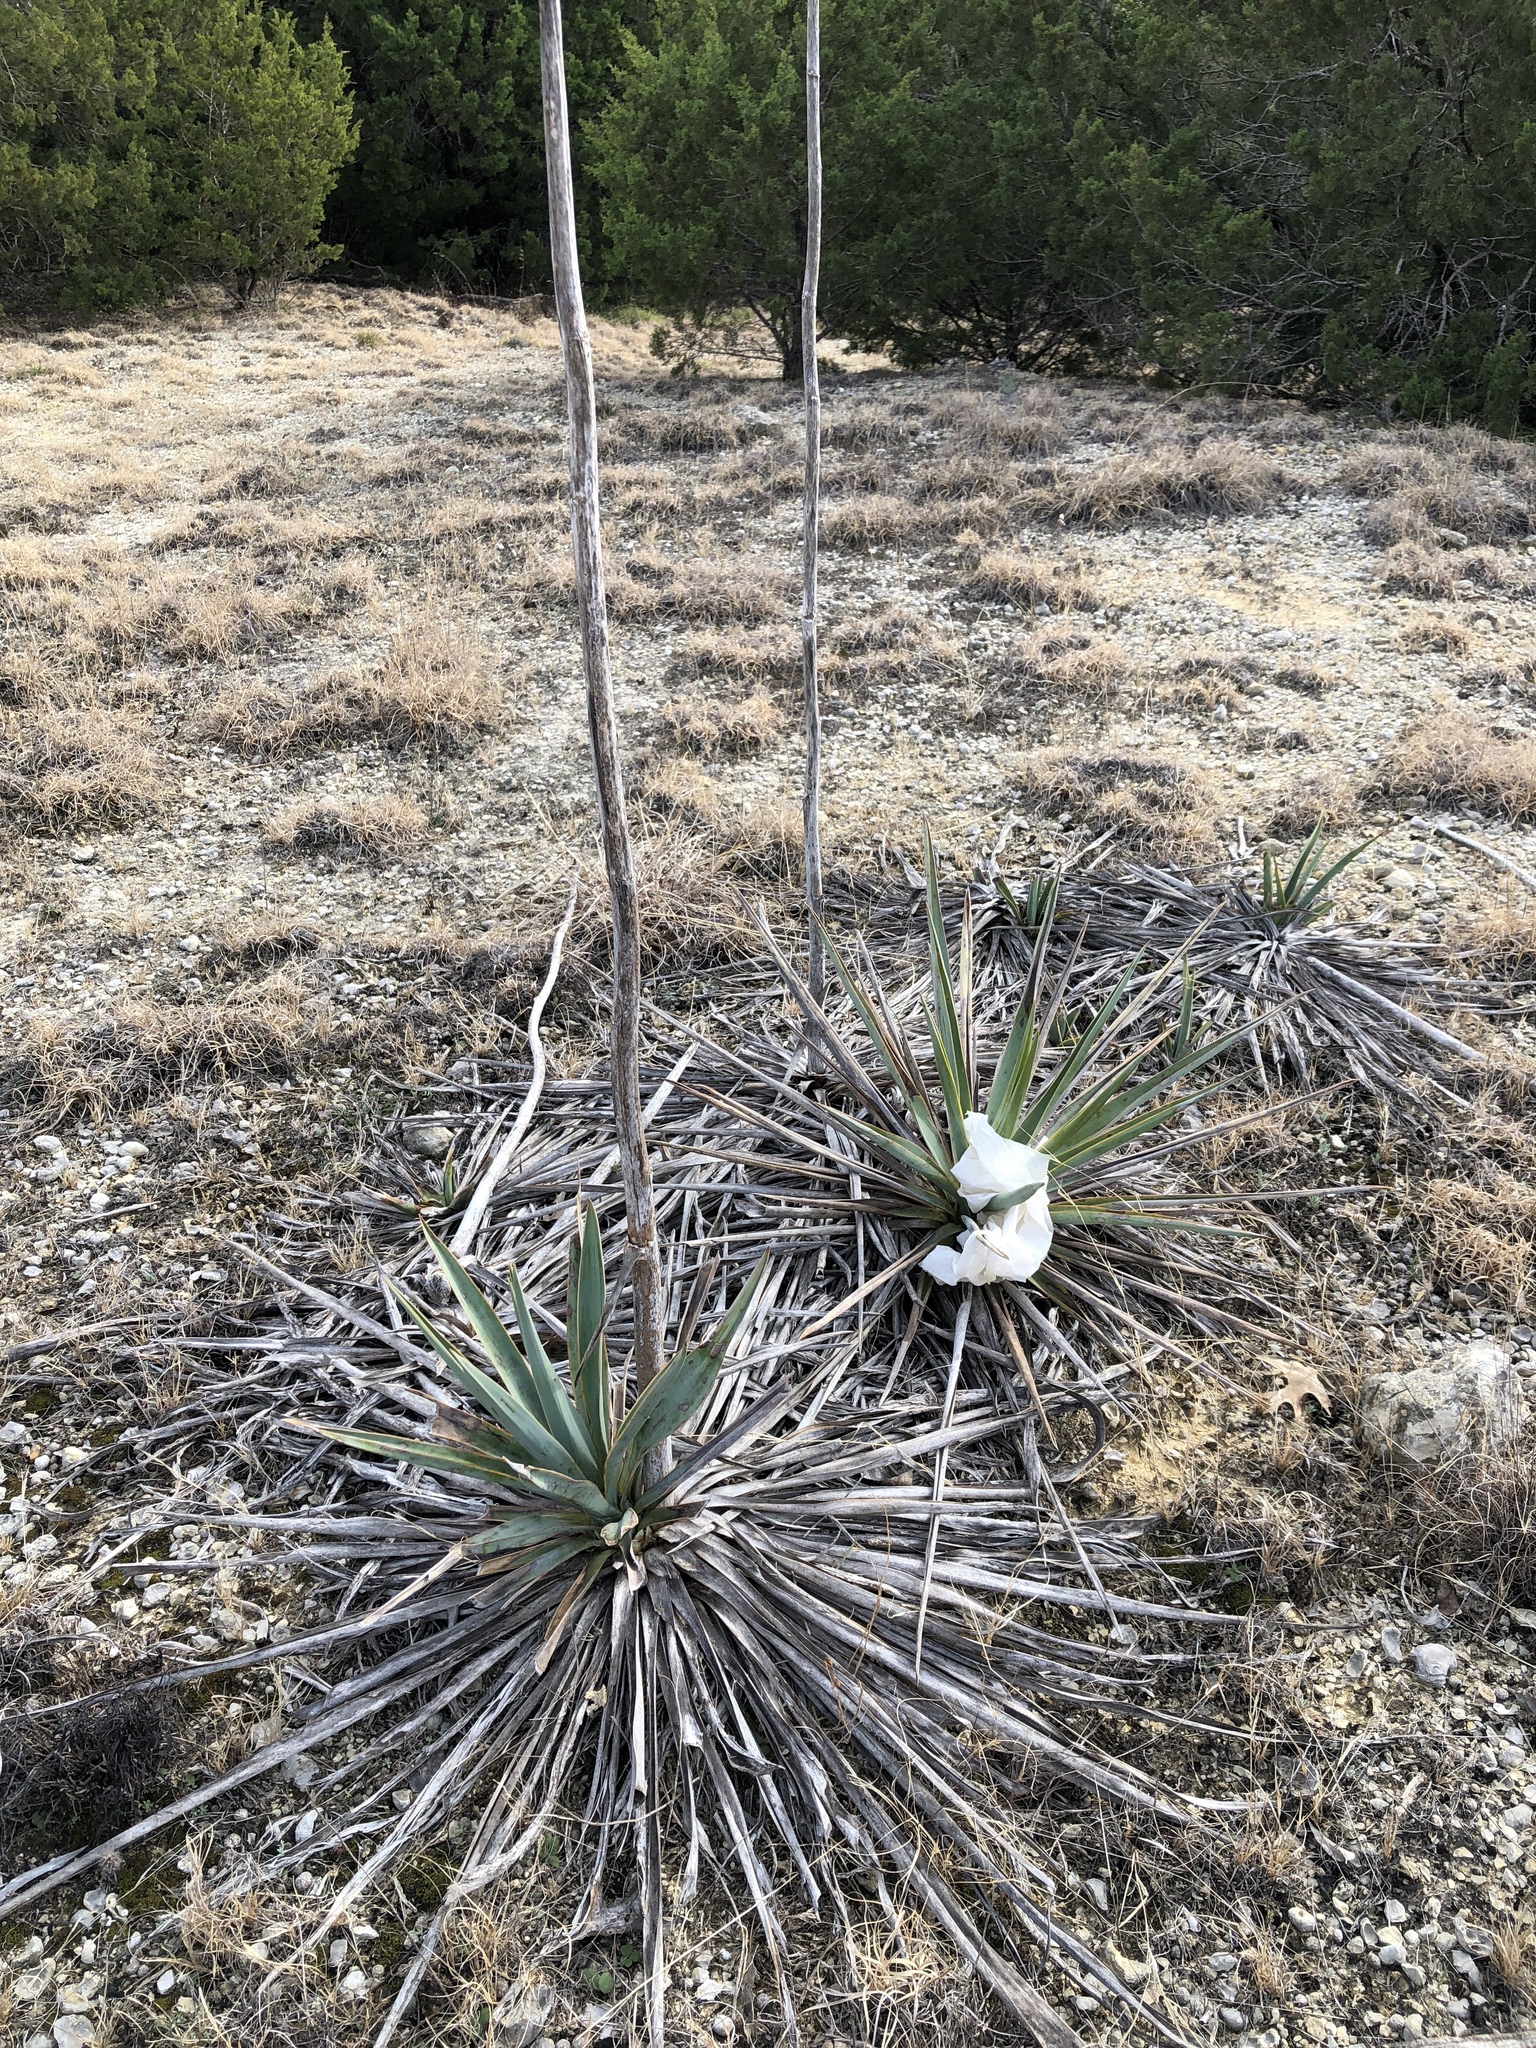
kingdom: Plantae
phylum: Tracheophyta
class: Liliopsida
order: Asparagales
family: Asparagaceae
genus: Yucca
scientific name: Yucca pallida
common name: Pale leaf yucca
